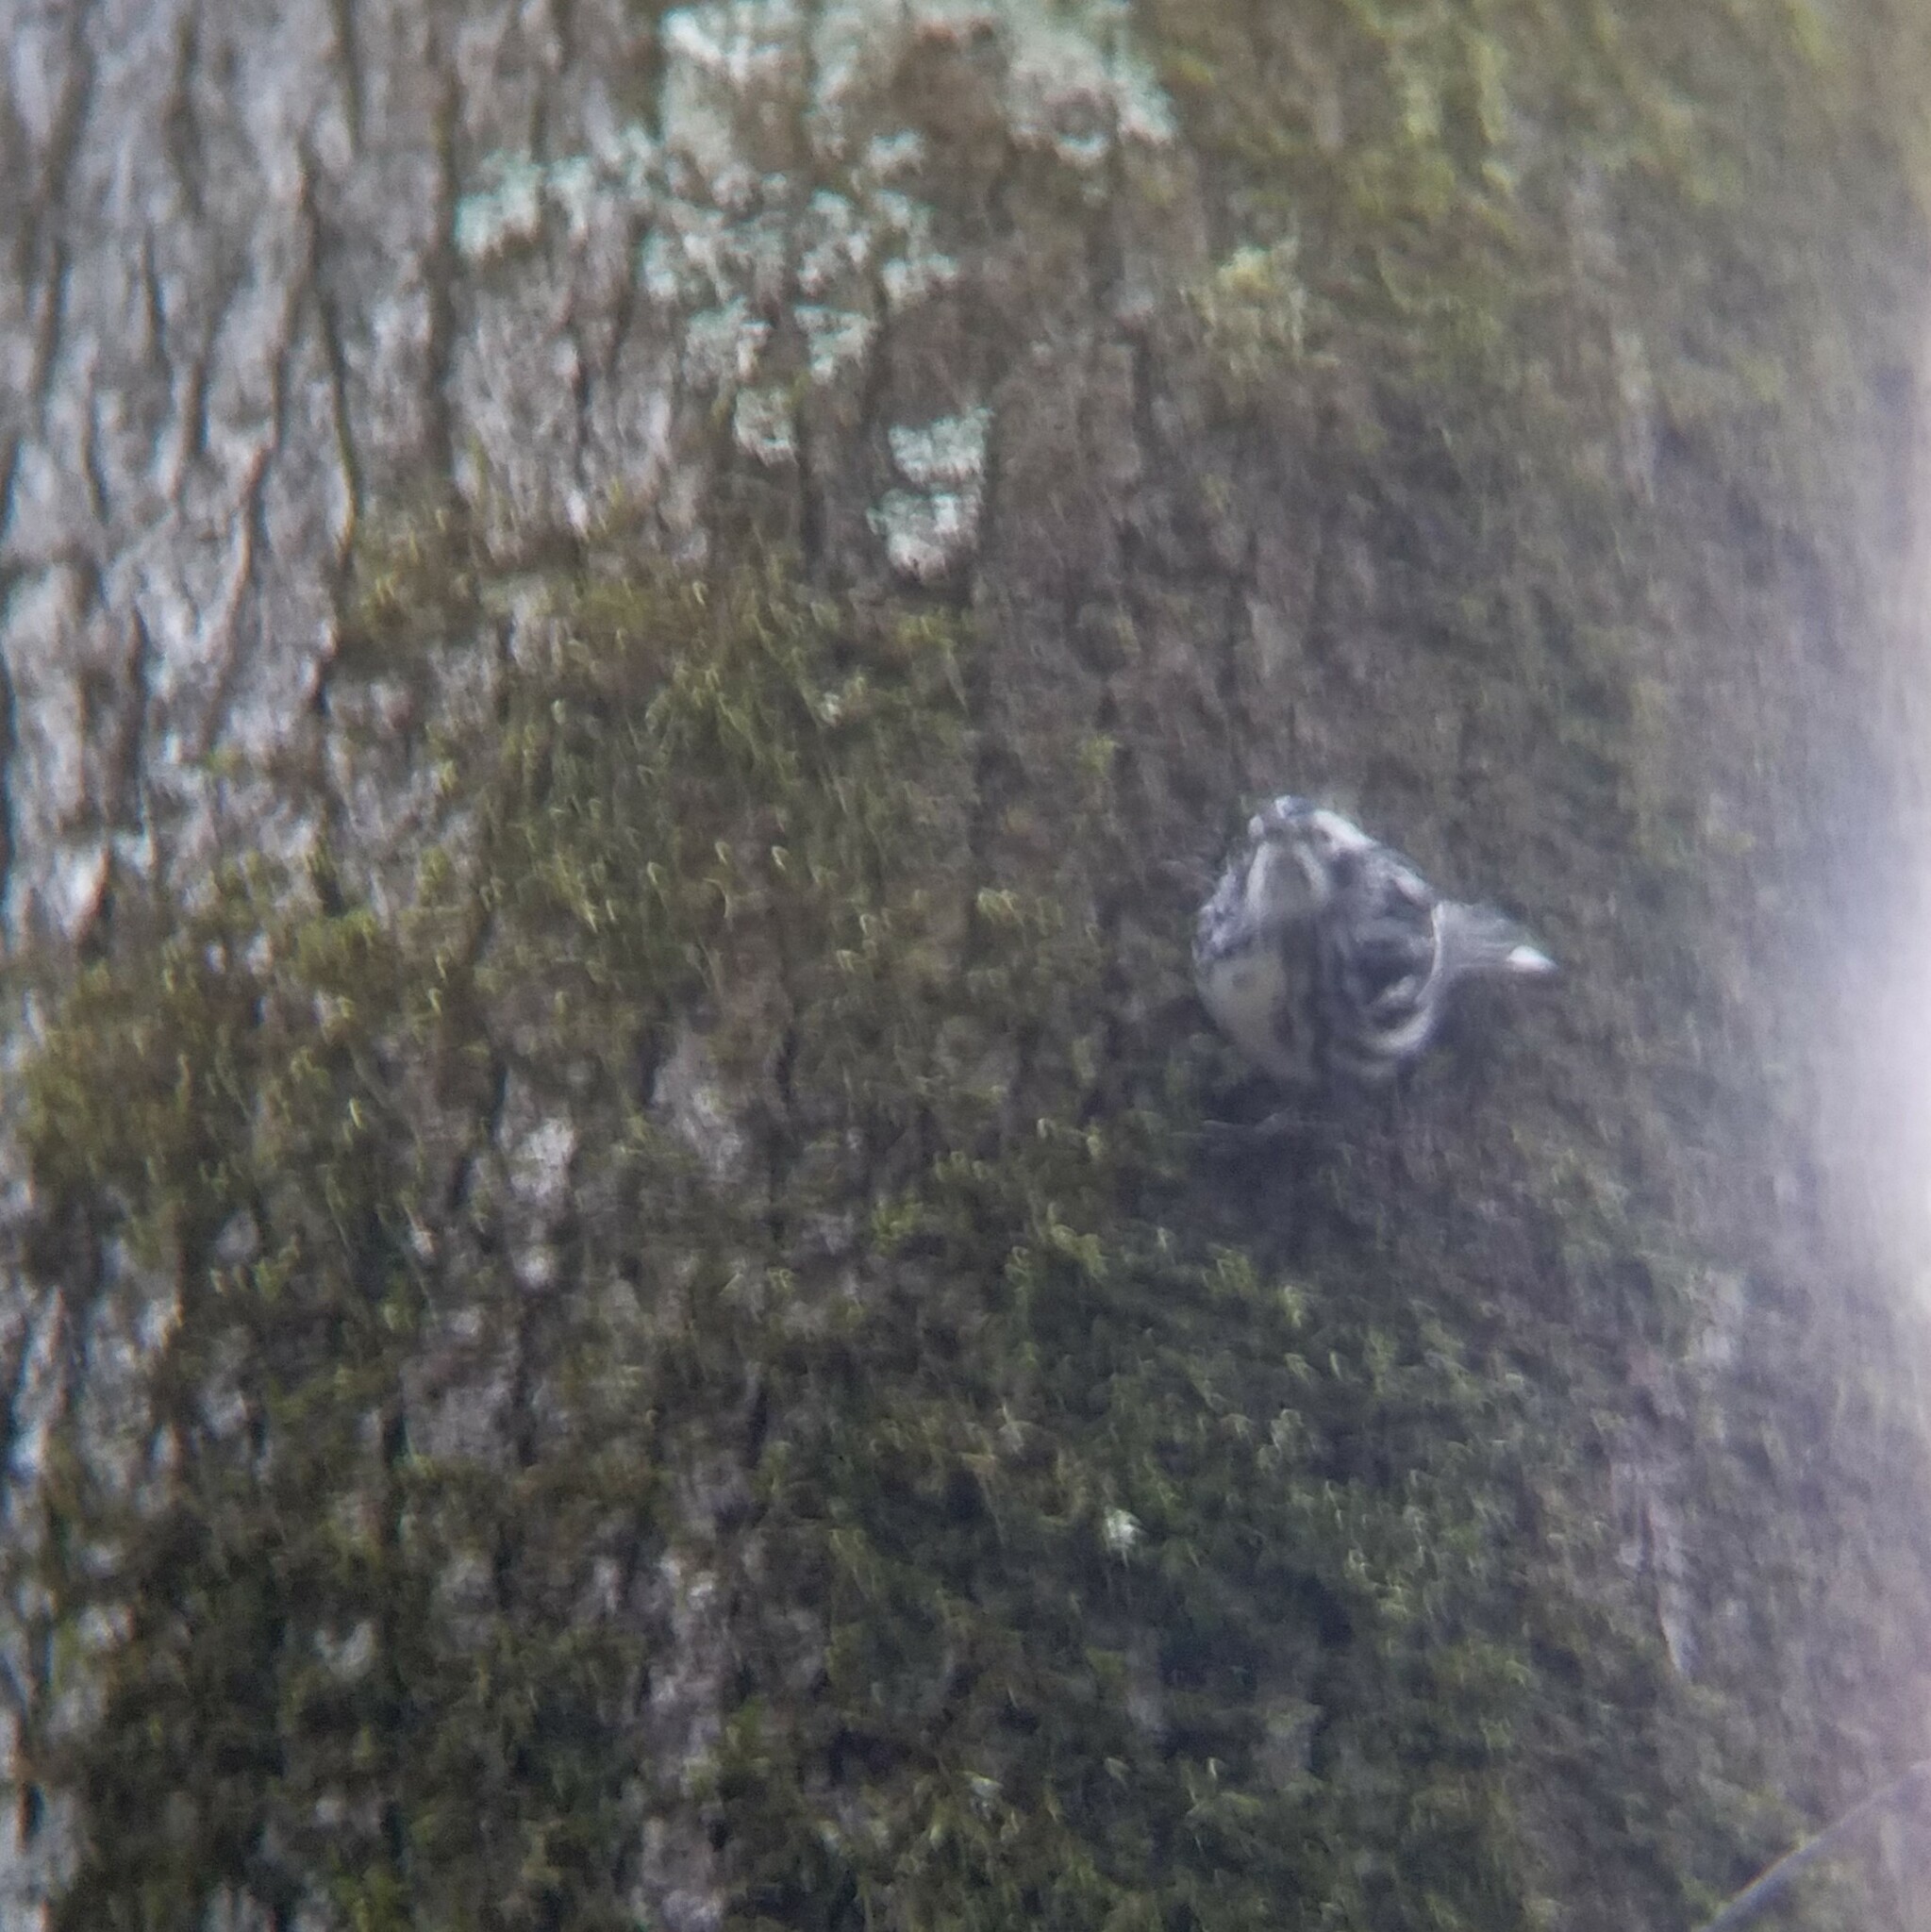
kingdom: Animalia
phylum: Chordata
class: Aves
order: Passeriformes
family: Parulidae
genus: Mniotilta
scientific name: Mniotilta varia
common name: Black-and-white warbler
